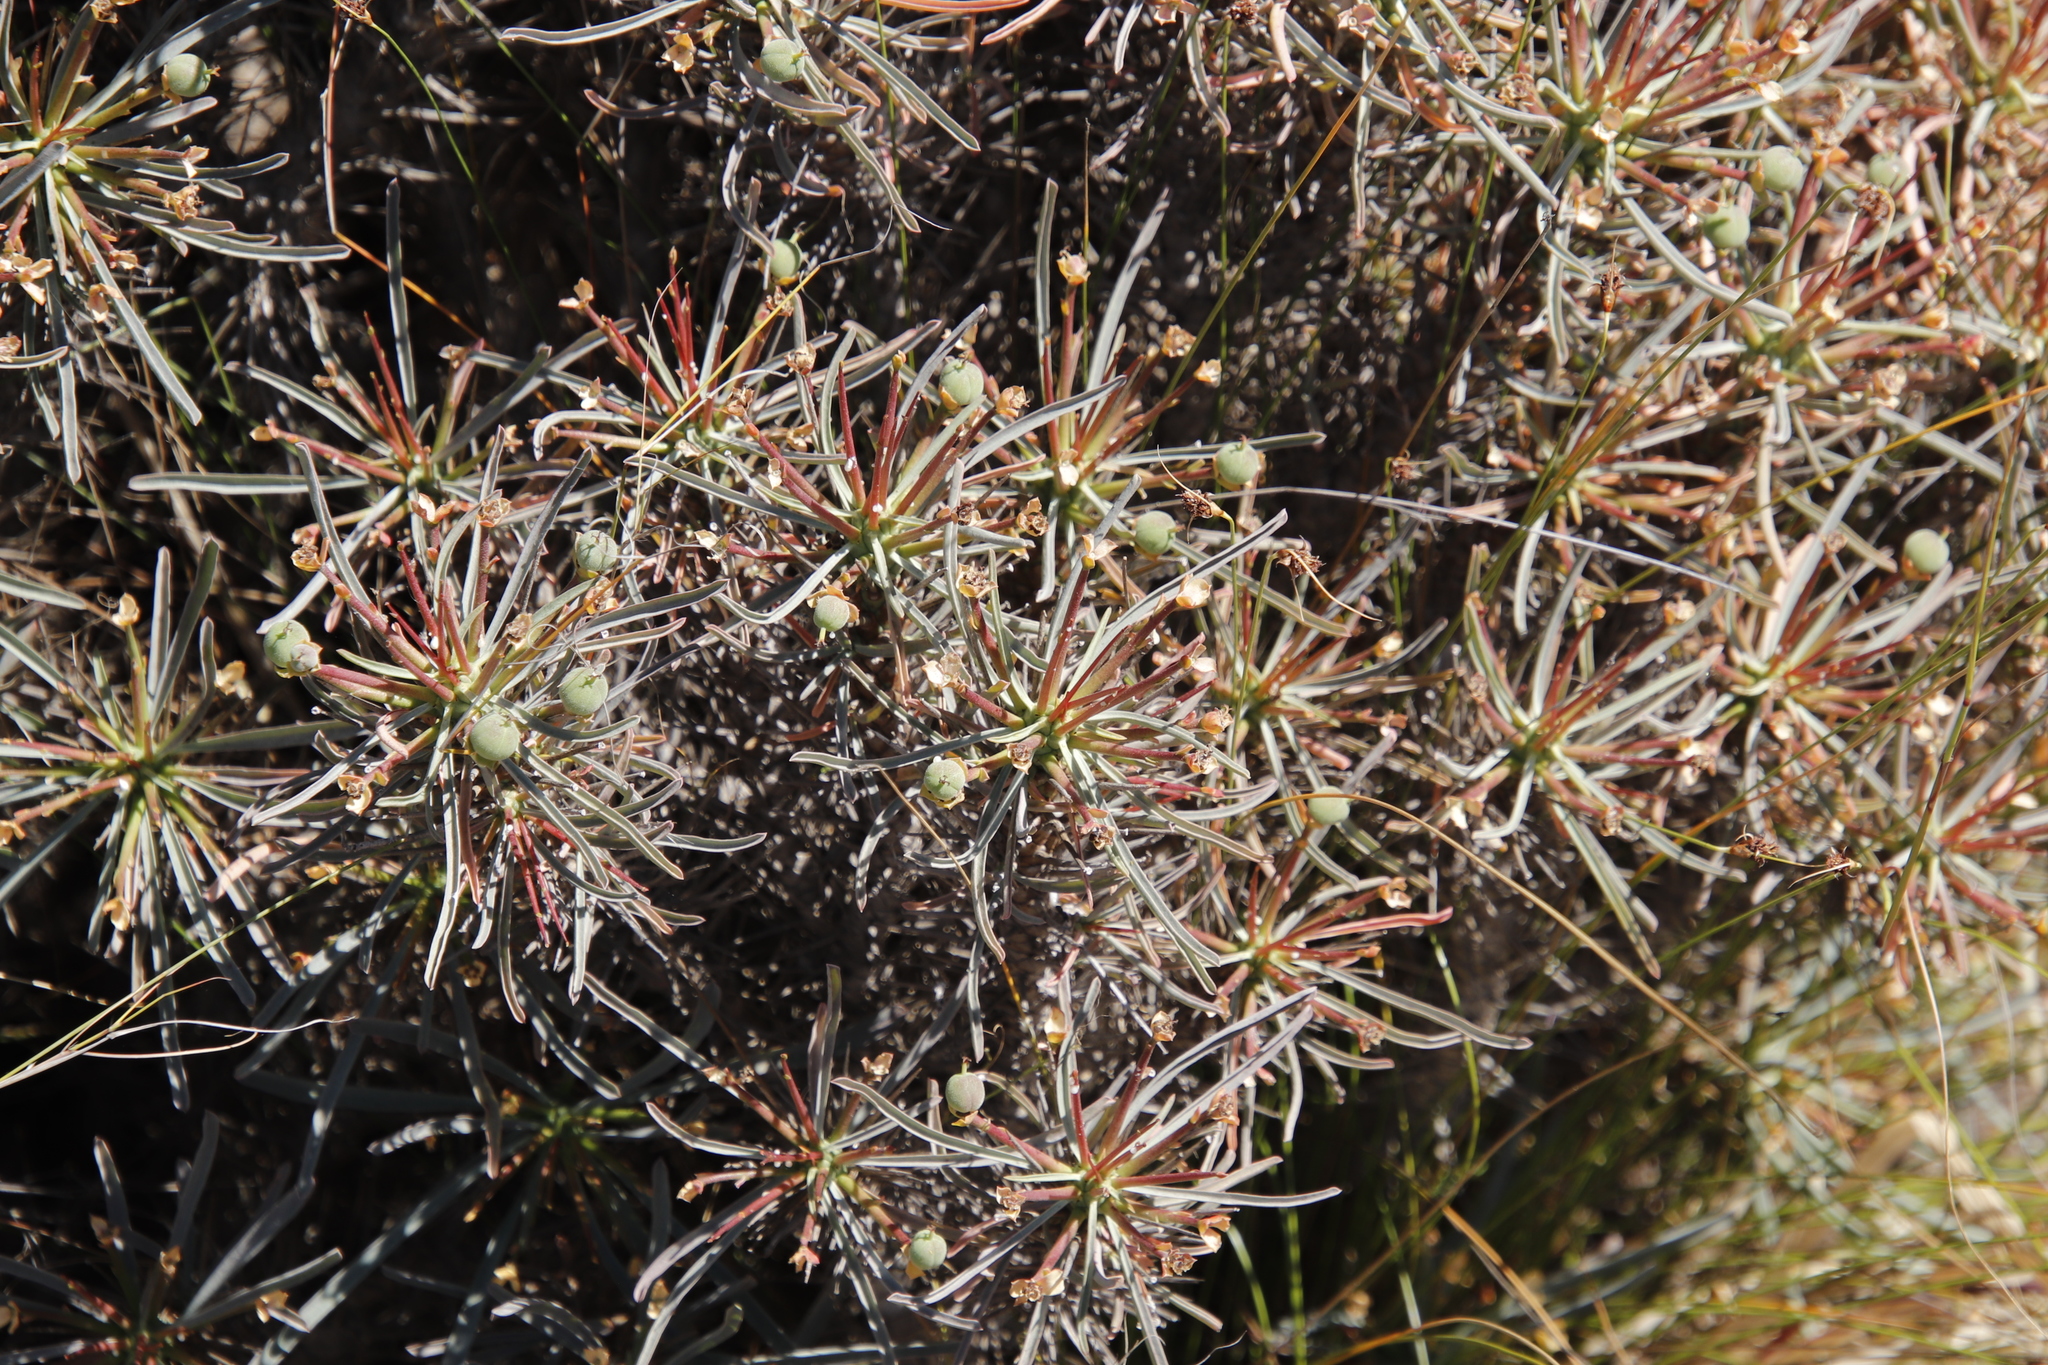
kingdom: Plantae
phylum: Tracheophyta
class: Magnoliopsida
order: Malpighiales
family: Euphorbiaceae
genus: Euphorbia
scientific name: Euphorbia loricata
